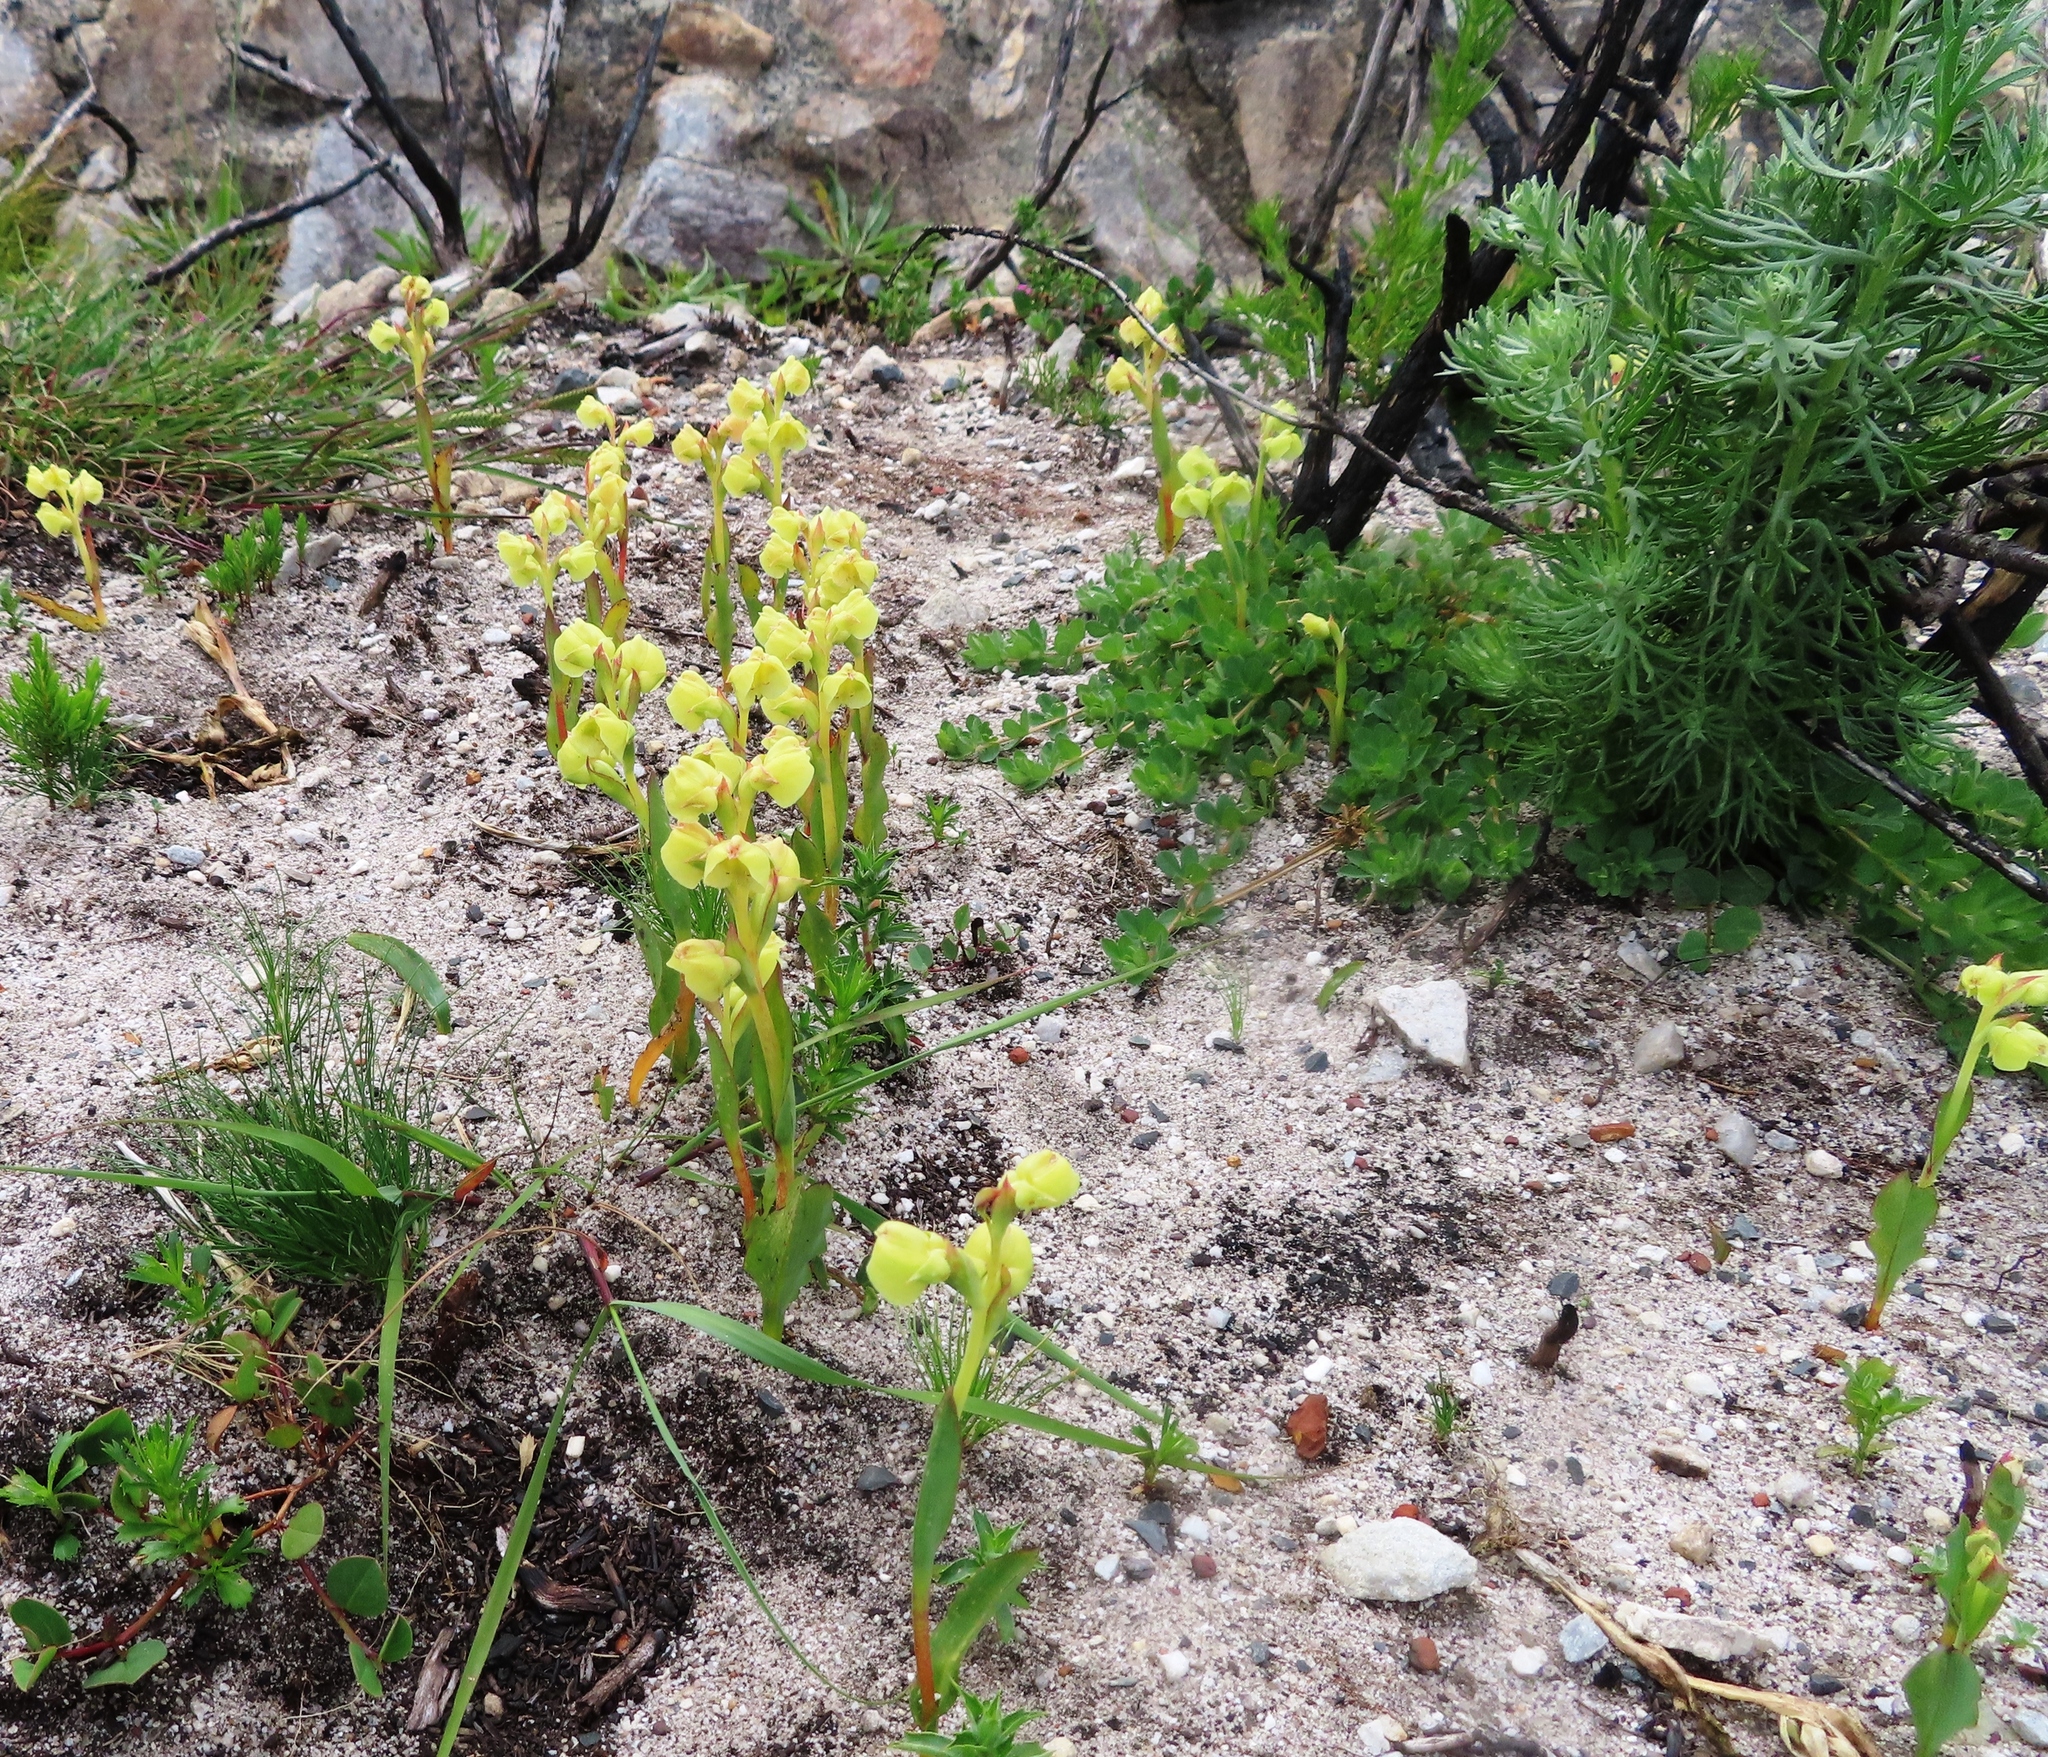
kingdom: Plantae
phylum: Tracheophyta
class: Liliopsida
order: Asparagales
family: Orchidaceae
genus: Pterygodium
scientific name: Pterygodium catholicum
